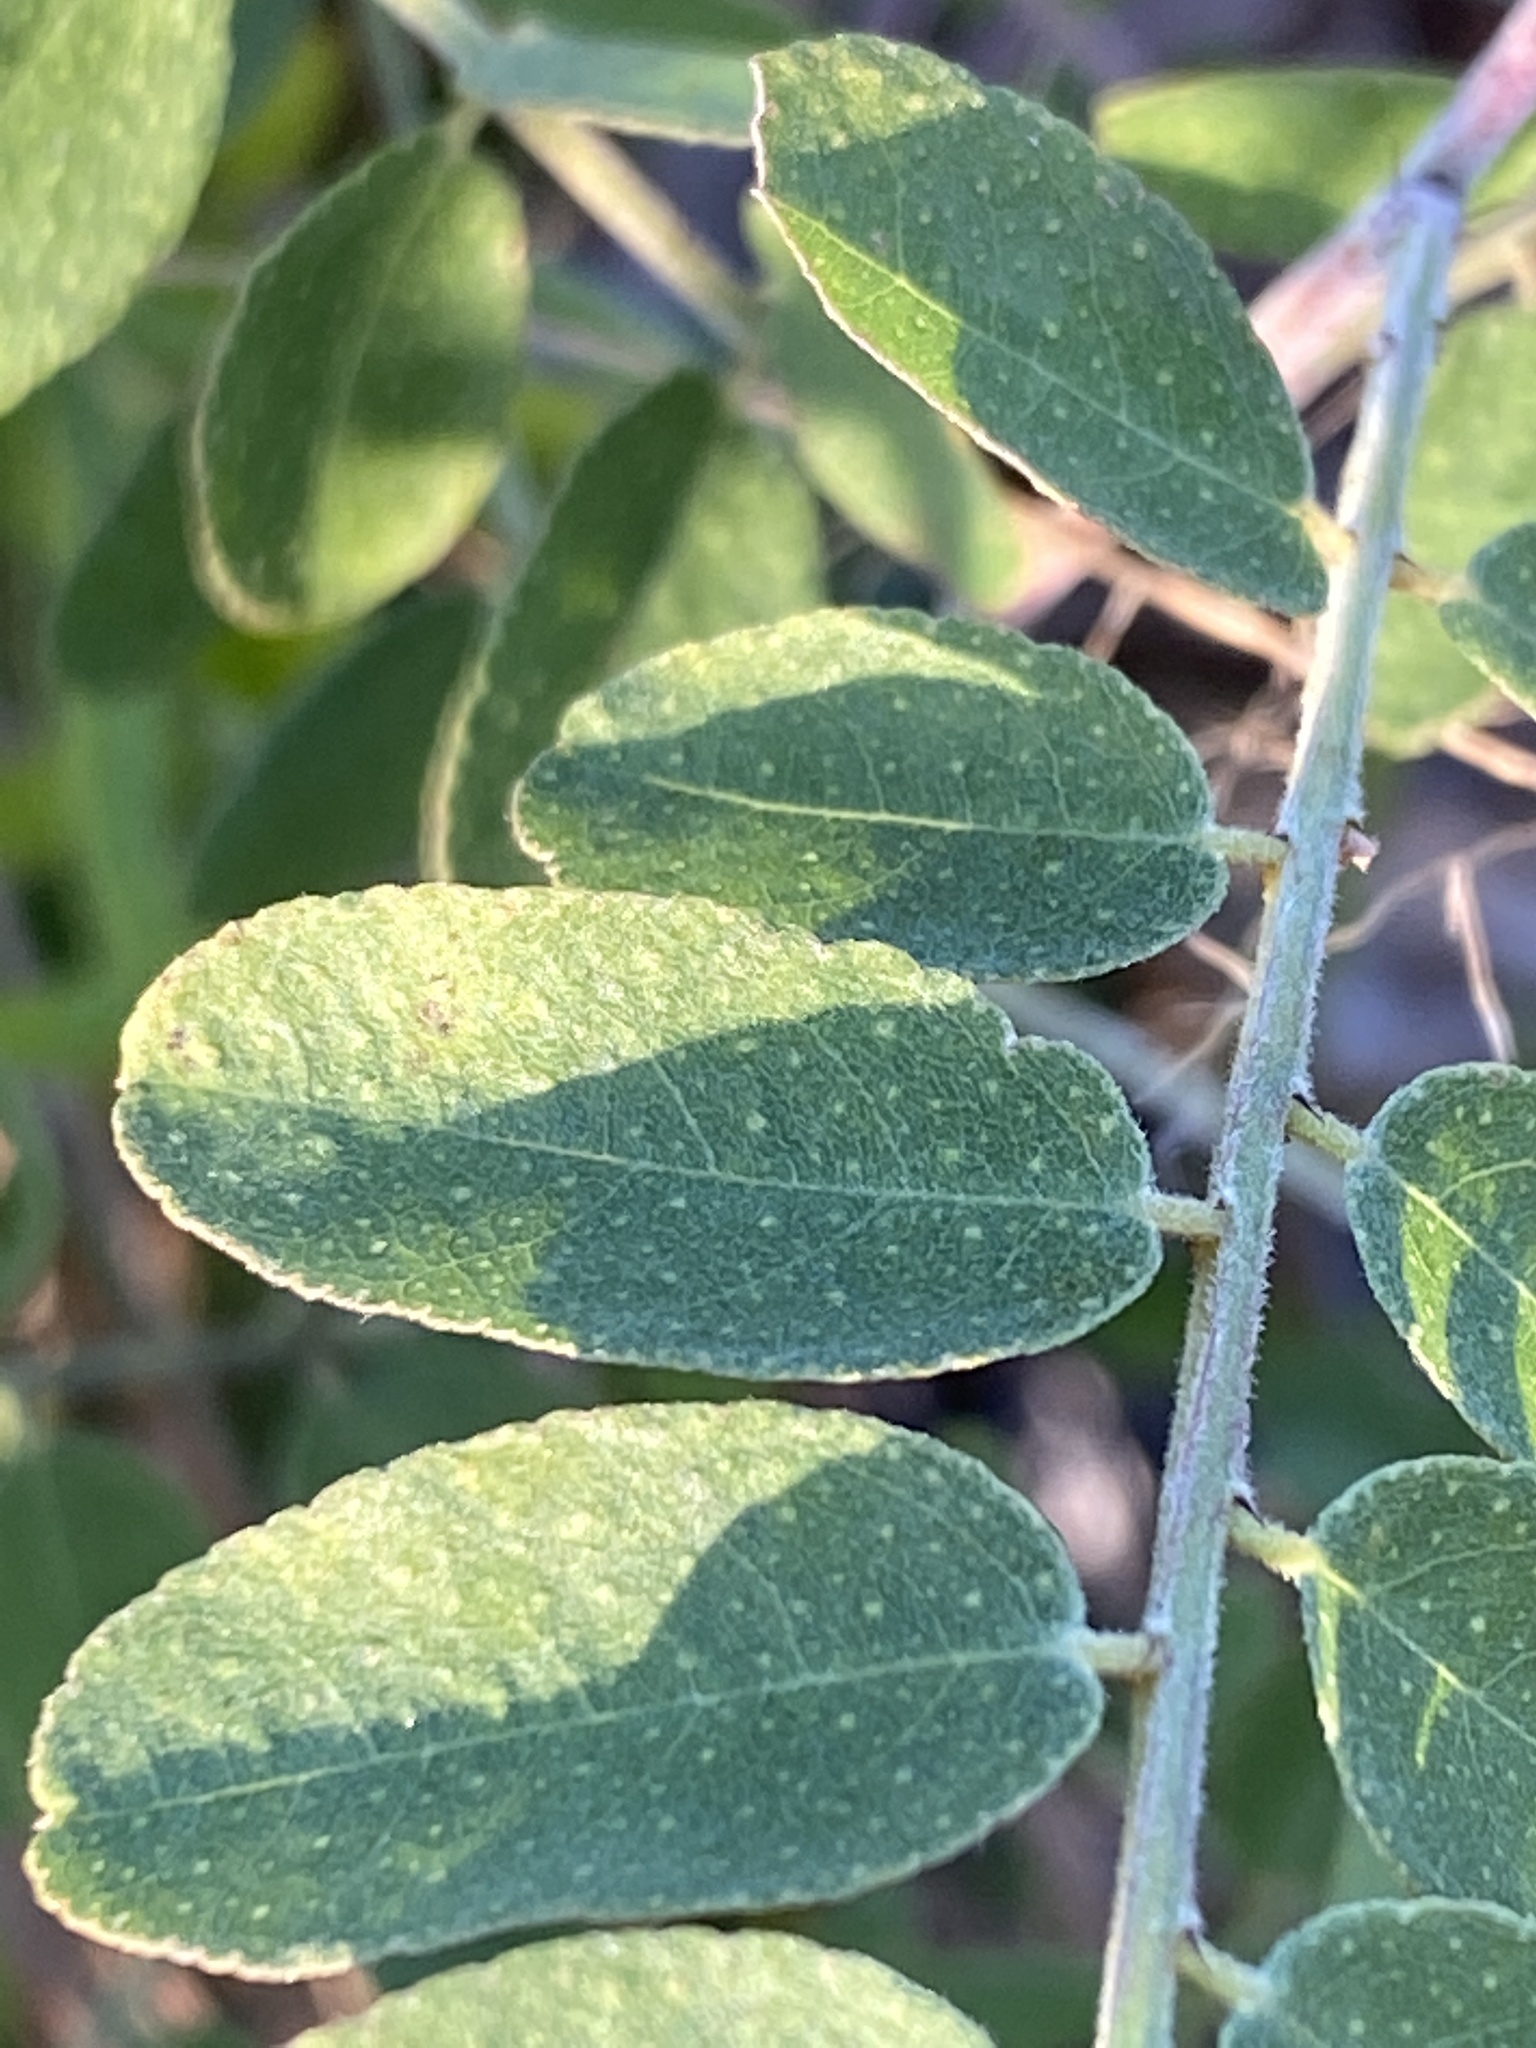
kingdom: Plantae
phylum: Tracheophyta
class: Magnoliopsida
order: Fabales
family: Fabaceae
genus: Amorpha
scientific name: Amorpha herbacea
